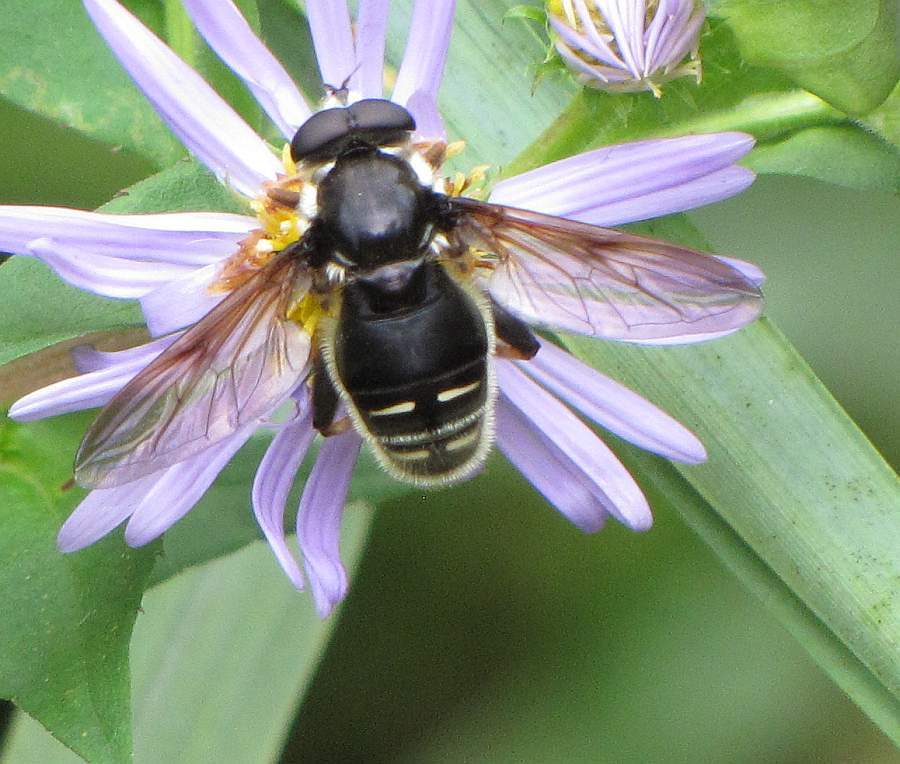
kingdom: Animalia
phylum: Arthropoda
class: Insecta
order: Diptera
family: Syrphidae
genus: Sericomyia
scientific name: Sericomyia militaris
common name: Narrow-banded pond fly
